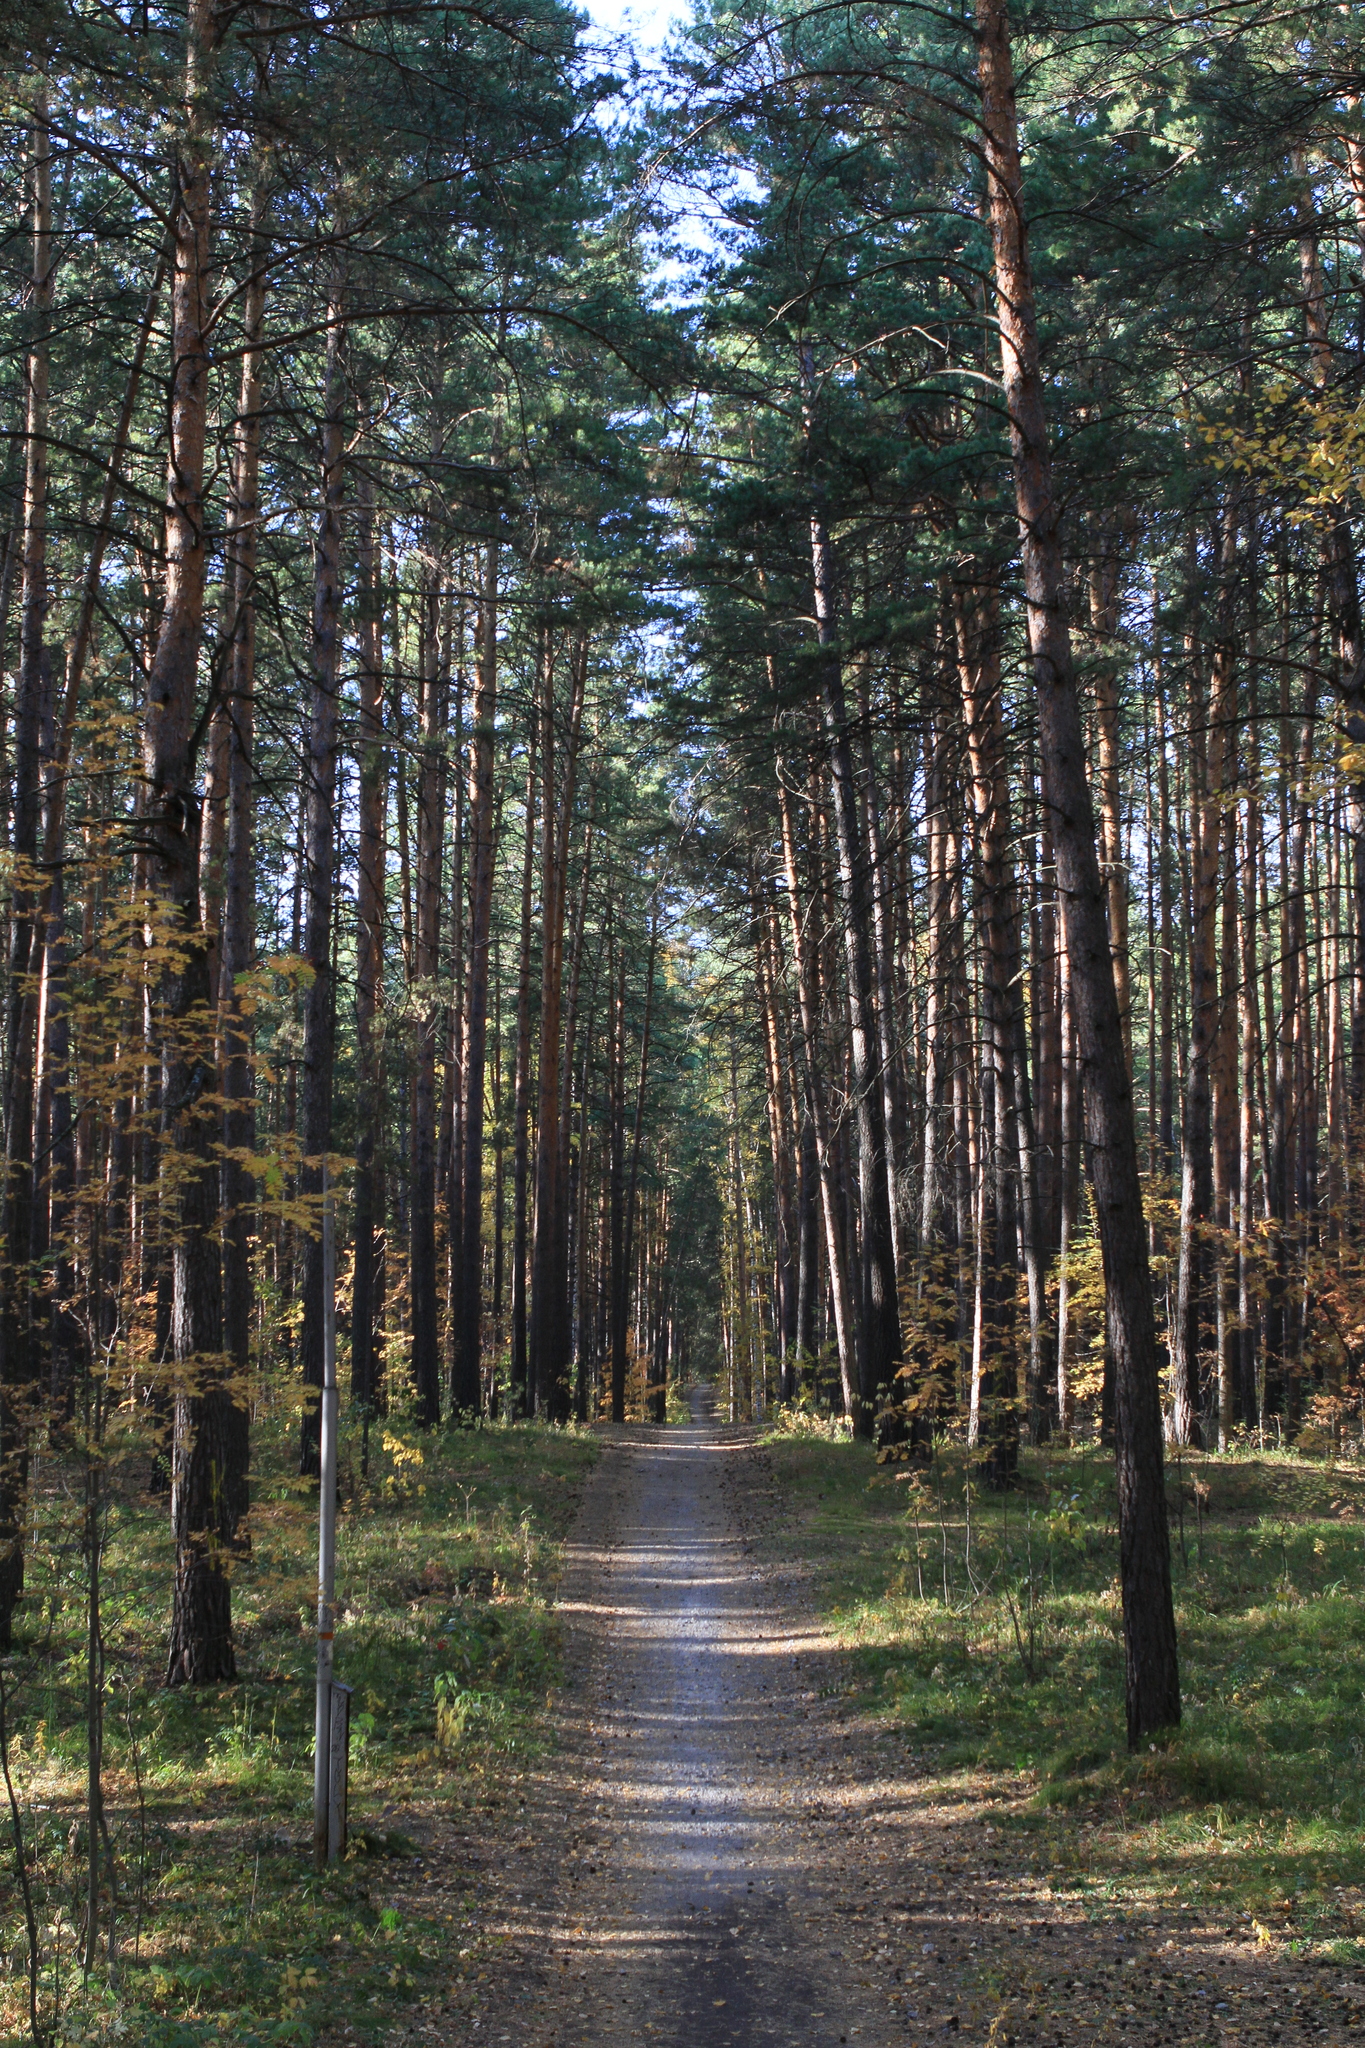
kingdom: Plantae
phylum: Tracheophyta
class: Pinopsida
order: Pinales
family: Pinaceae
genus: Pinus
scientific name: Pinus sylvestris
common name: Scots pine
